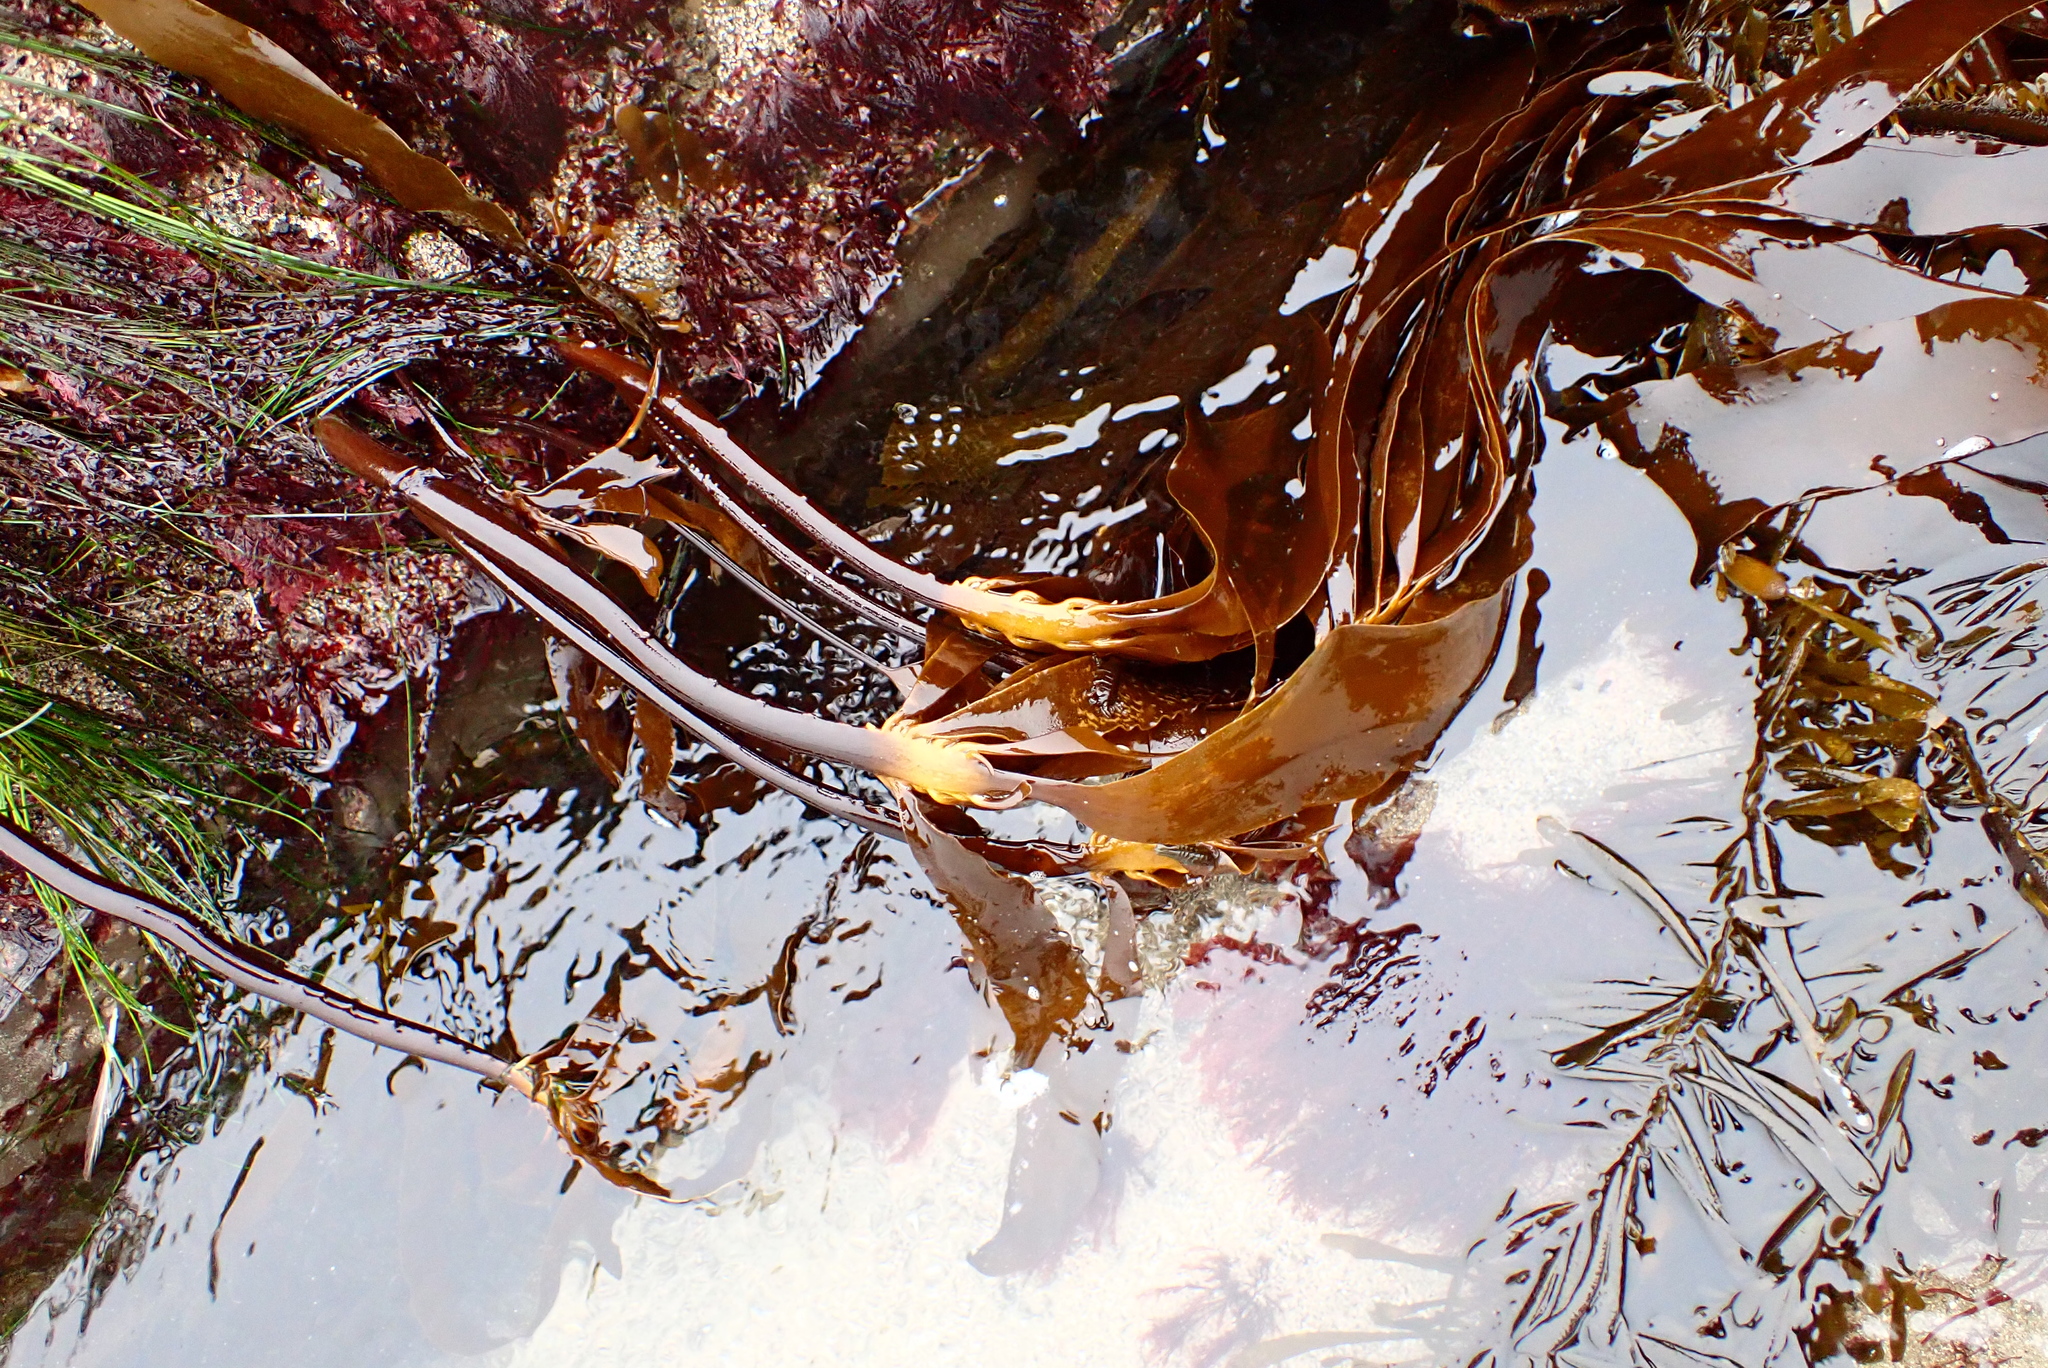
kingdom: Chromista
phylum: Ochrophyta
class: Phaeophyceae
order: Laminariales
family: Alariaceae
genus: Pterygophora
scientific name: Pterygophora californica
